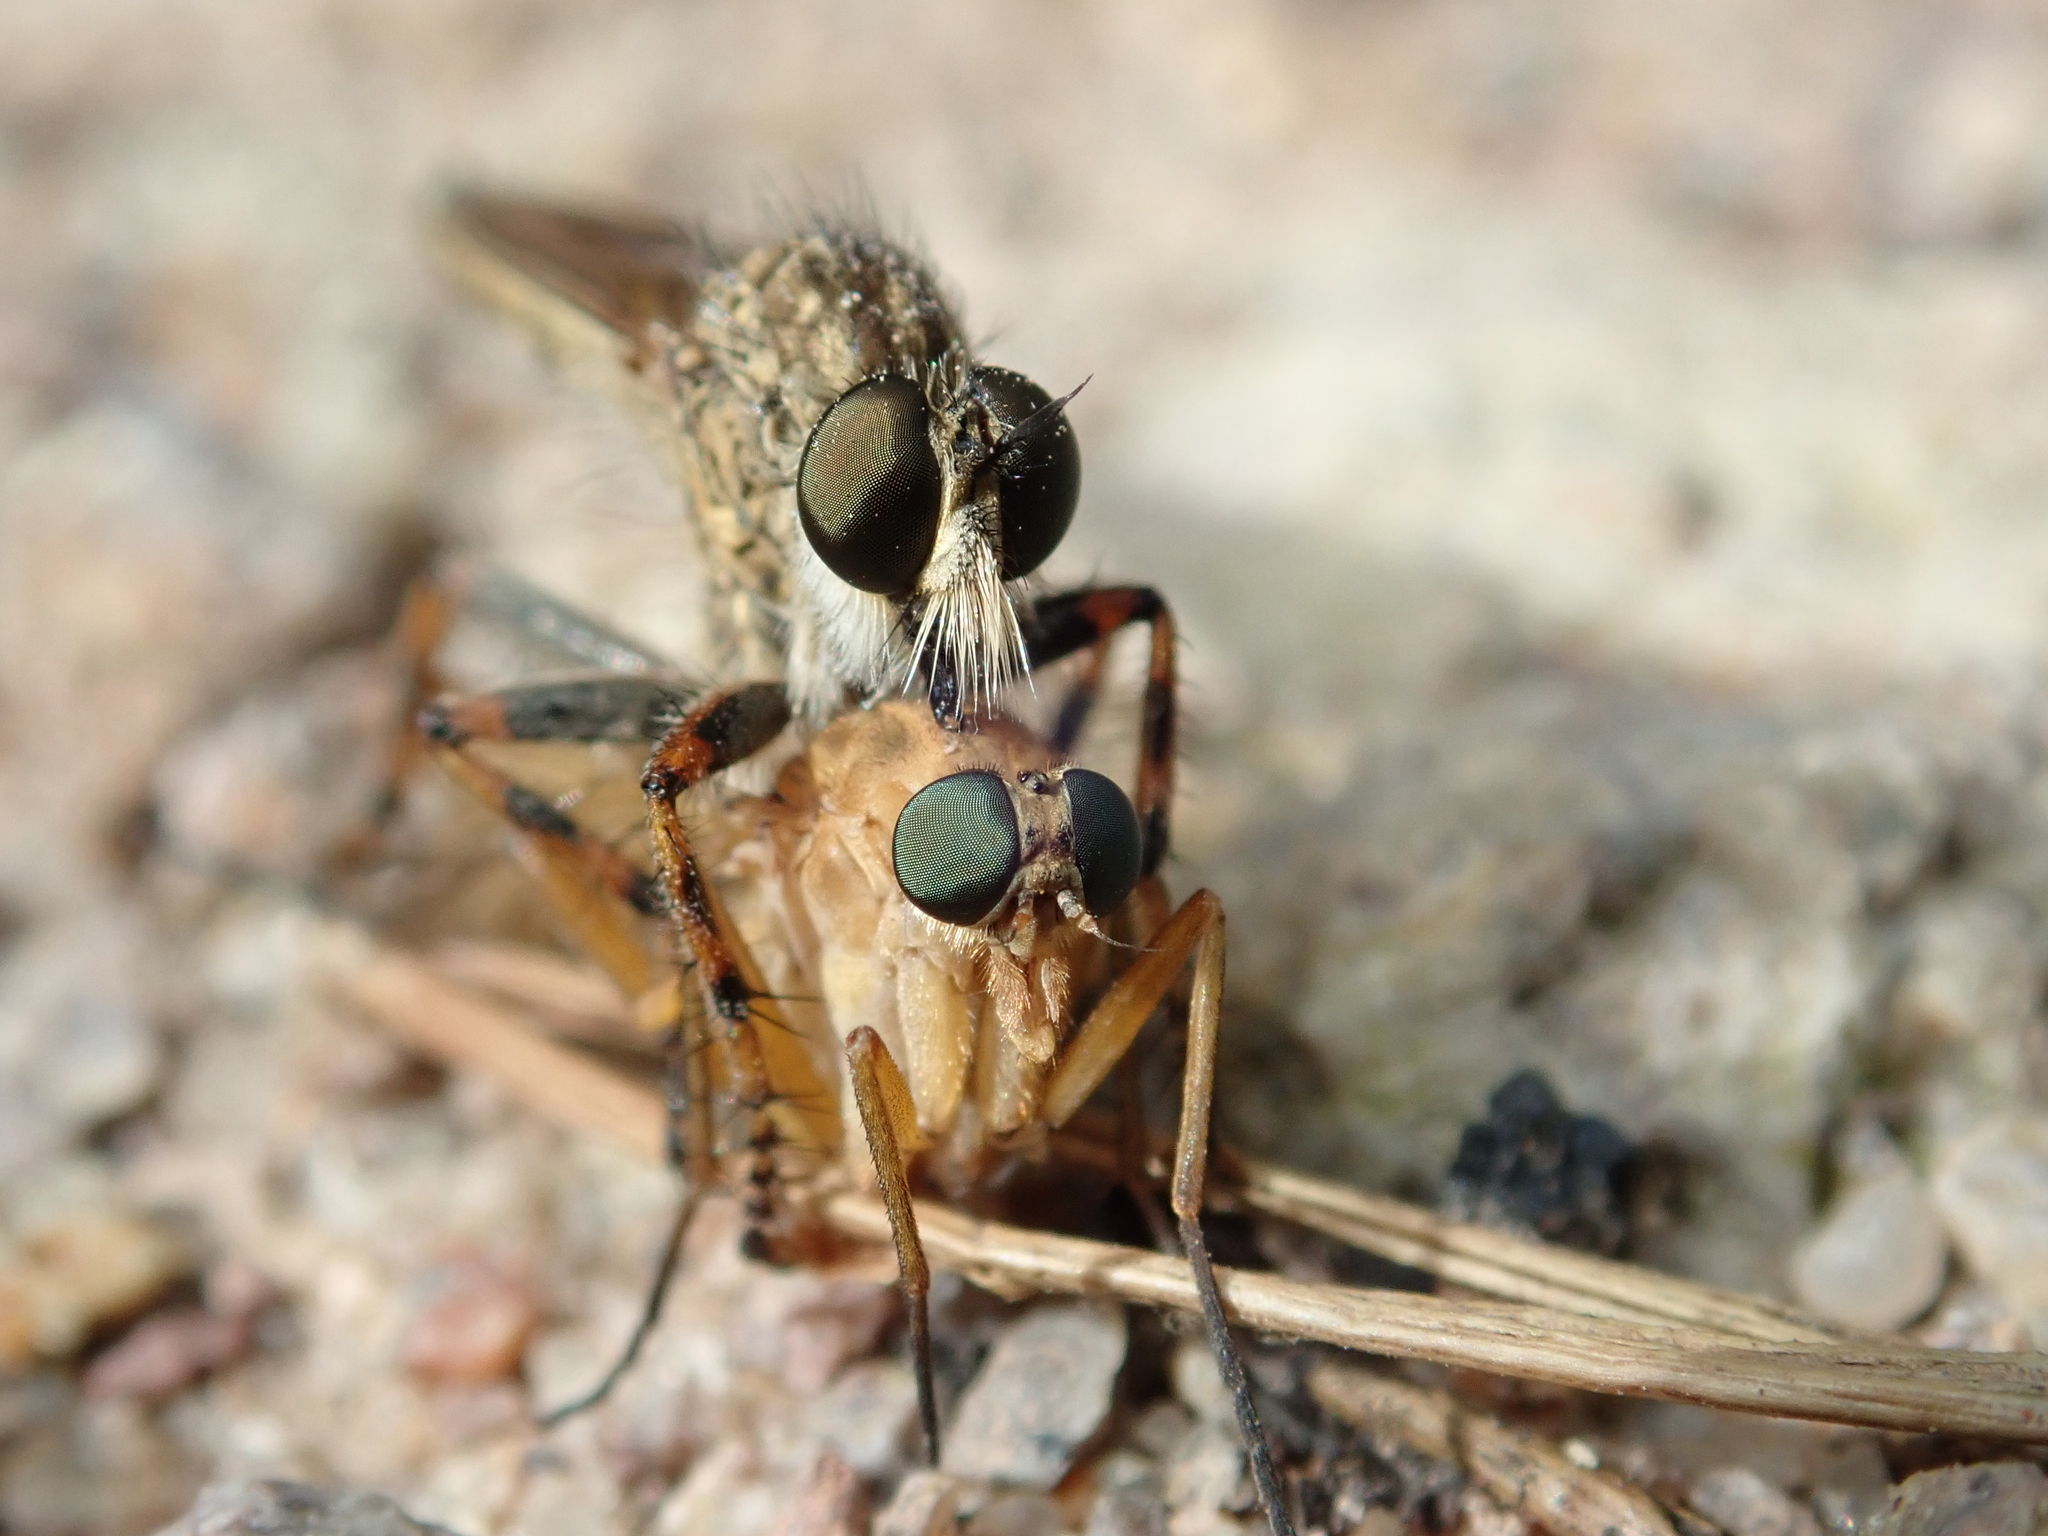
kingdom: Animalia
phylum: Arthropoda
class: Insecta
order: Diptera
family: Asilidae
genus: Epitriptus
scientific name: Epitriptus cingulatus
